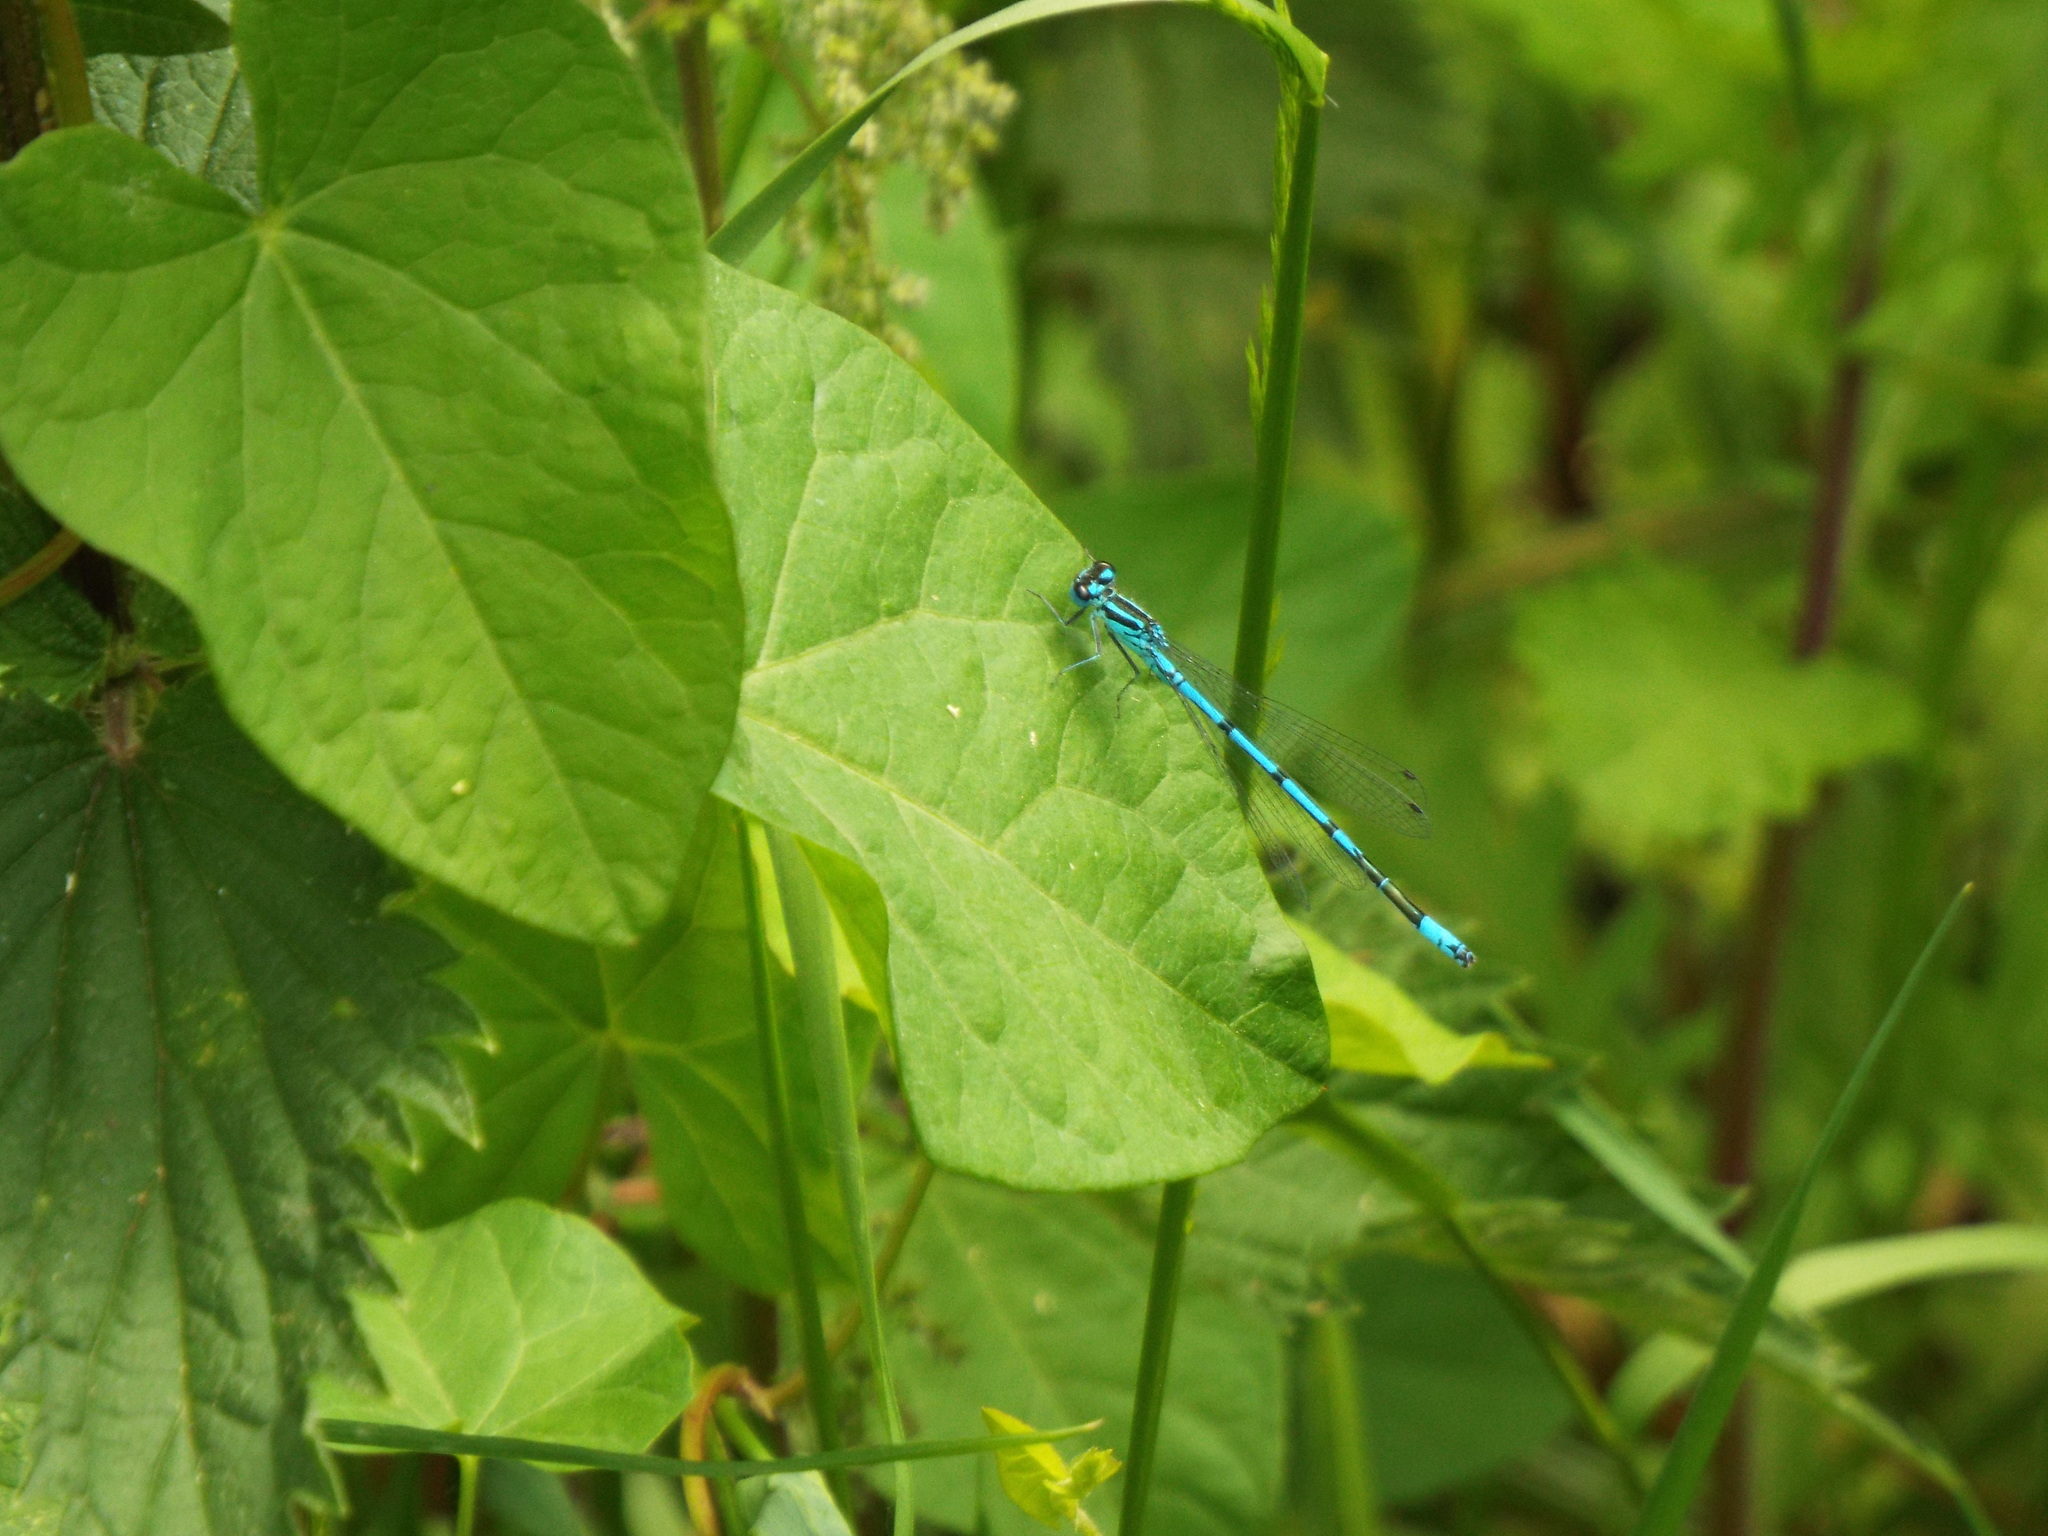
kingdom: Animalia
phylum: Arthropoda
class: Insecta
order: Odonata
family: Coenagrionidae
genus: Coenagrion
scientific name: Coenagrion puella
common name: Azure damselfly
